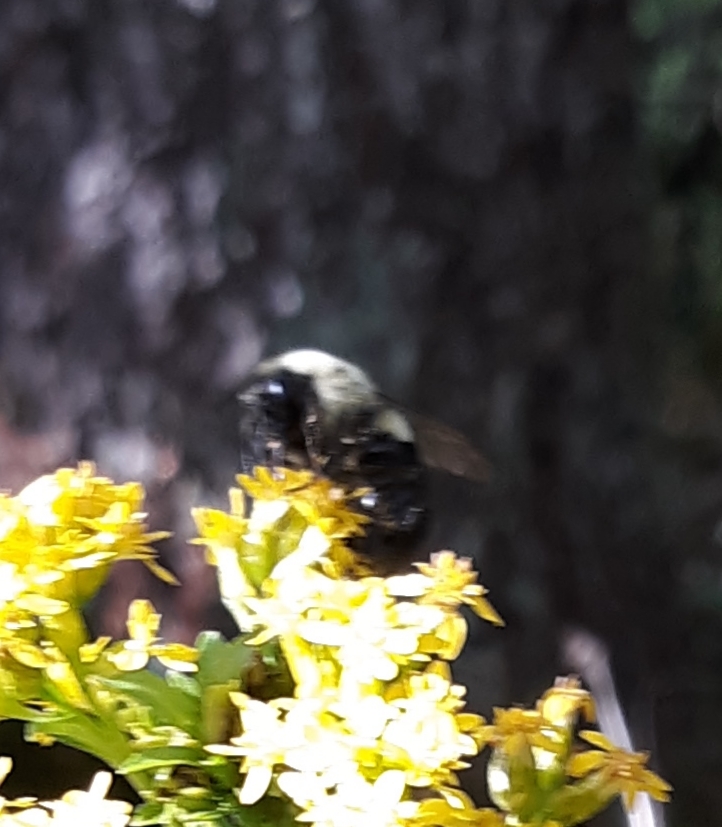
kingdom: Animalia
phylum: Arthropoda
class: Insecta
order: Hymenoptera
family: Apidae
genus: Bombus
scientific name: Bombus impatiens
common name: Common eastern bumble bee
